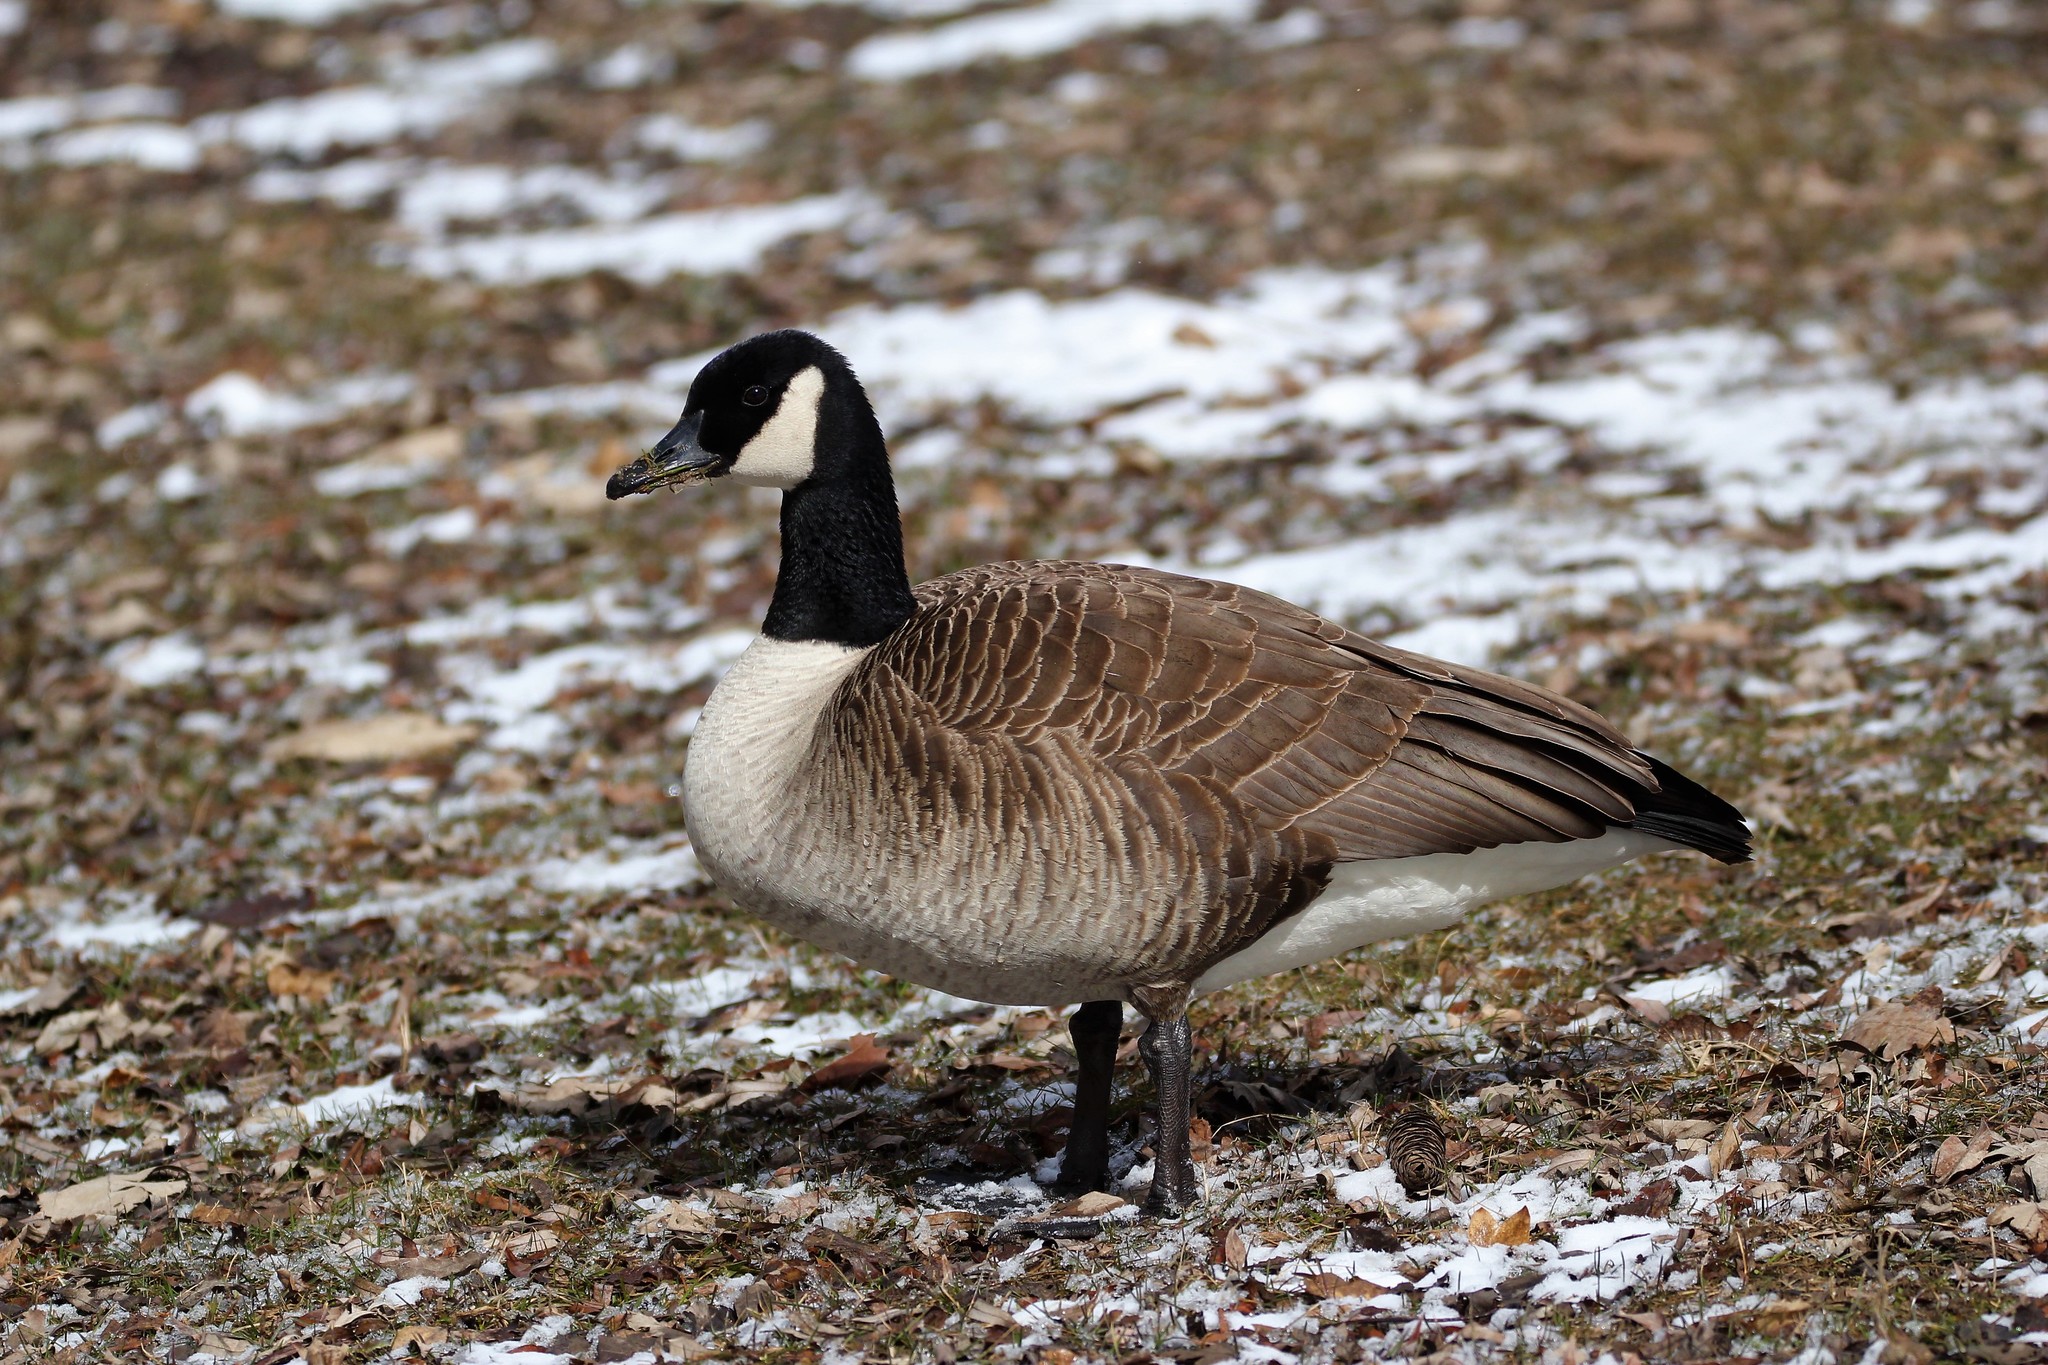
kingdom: Animalia
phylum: Chordata
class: Aves
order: Anseriformes
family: Anatidae
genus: Branta
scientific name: Branta canadensis
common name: Canada goose
